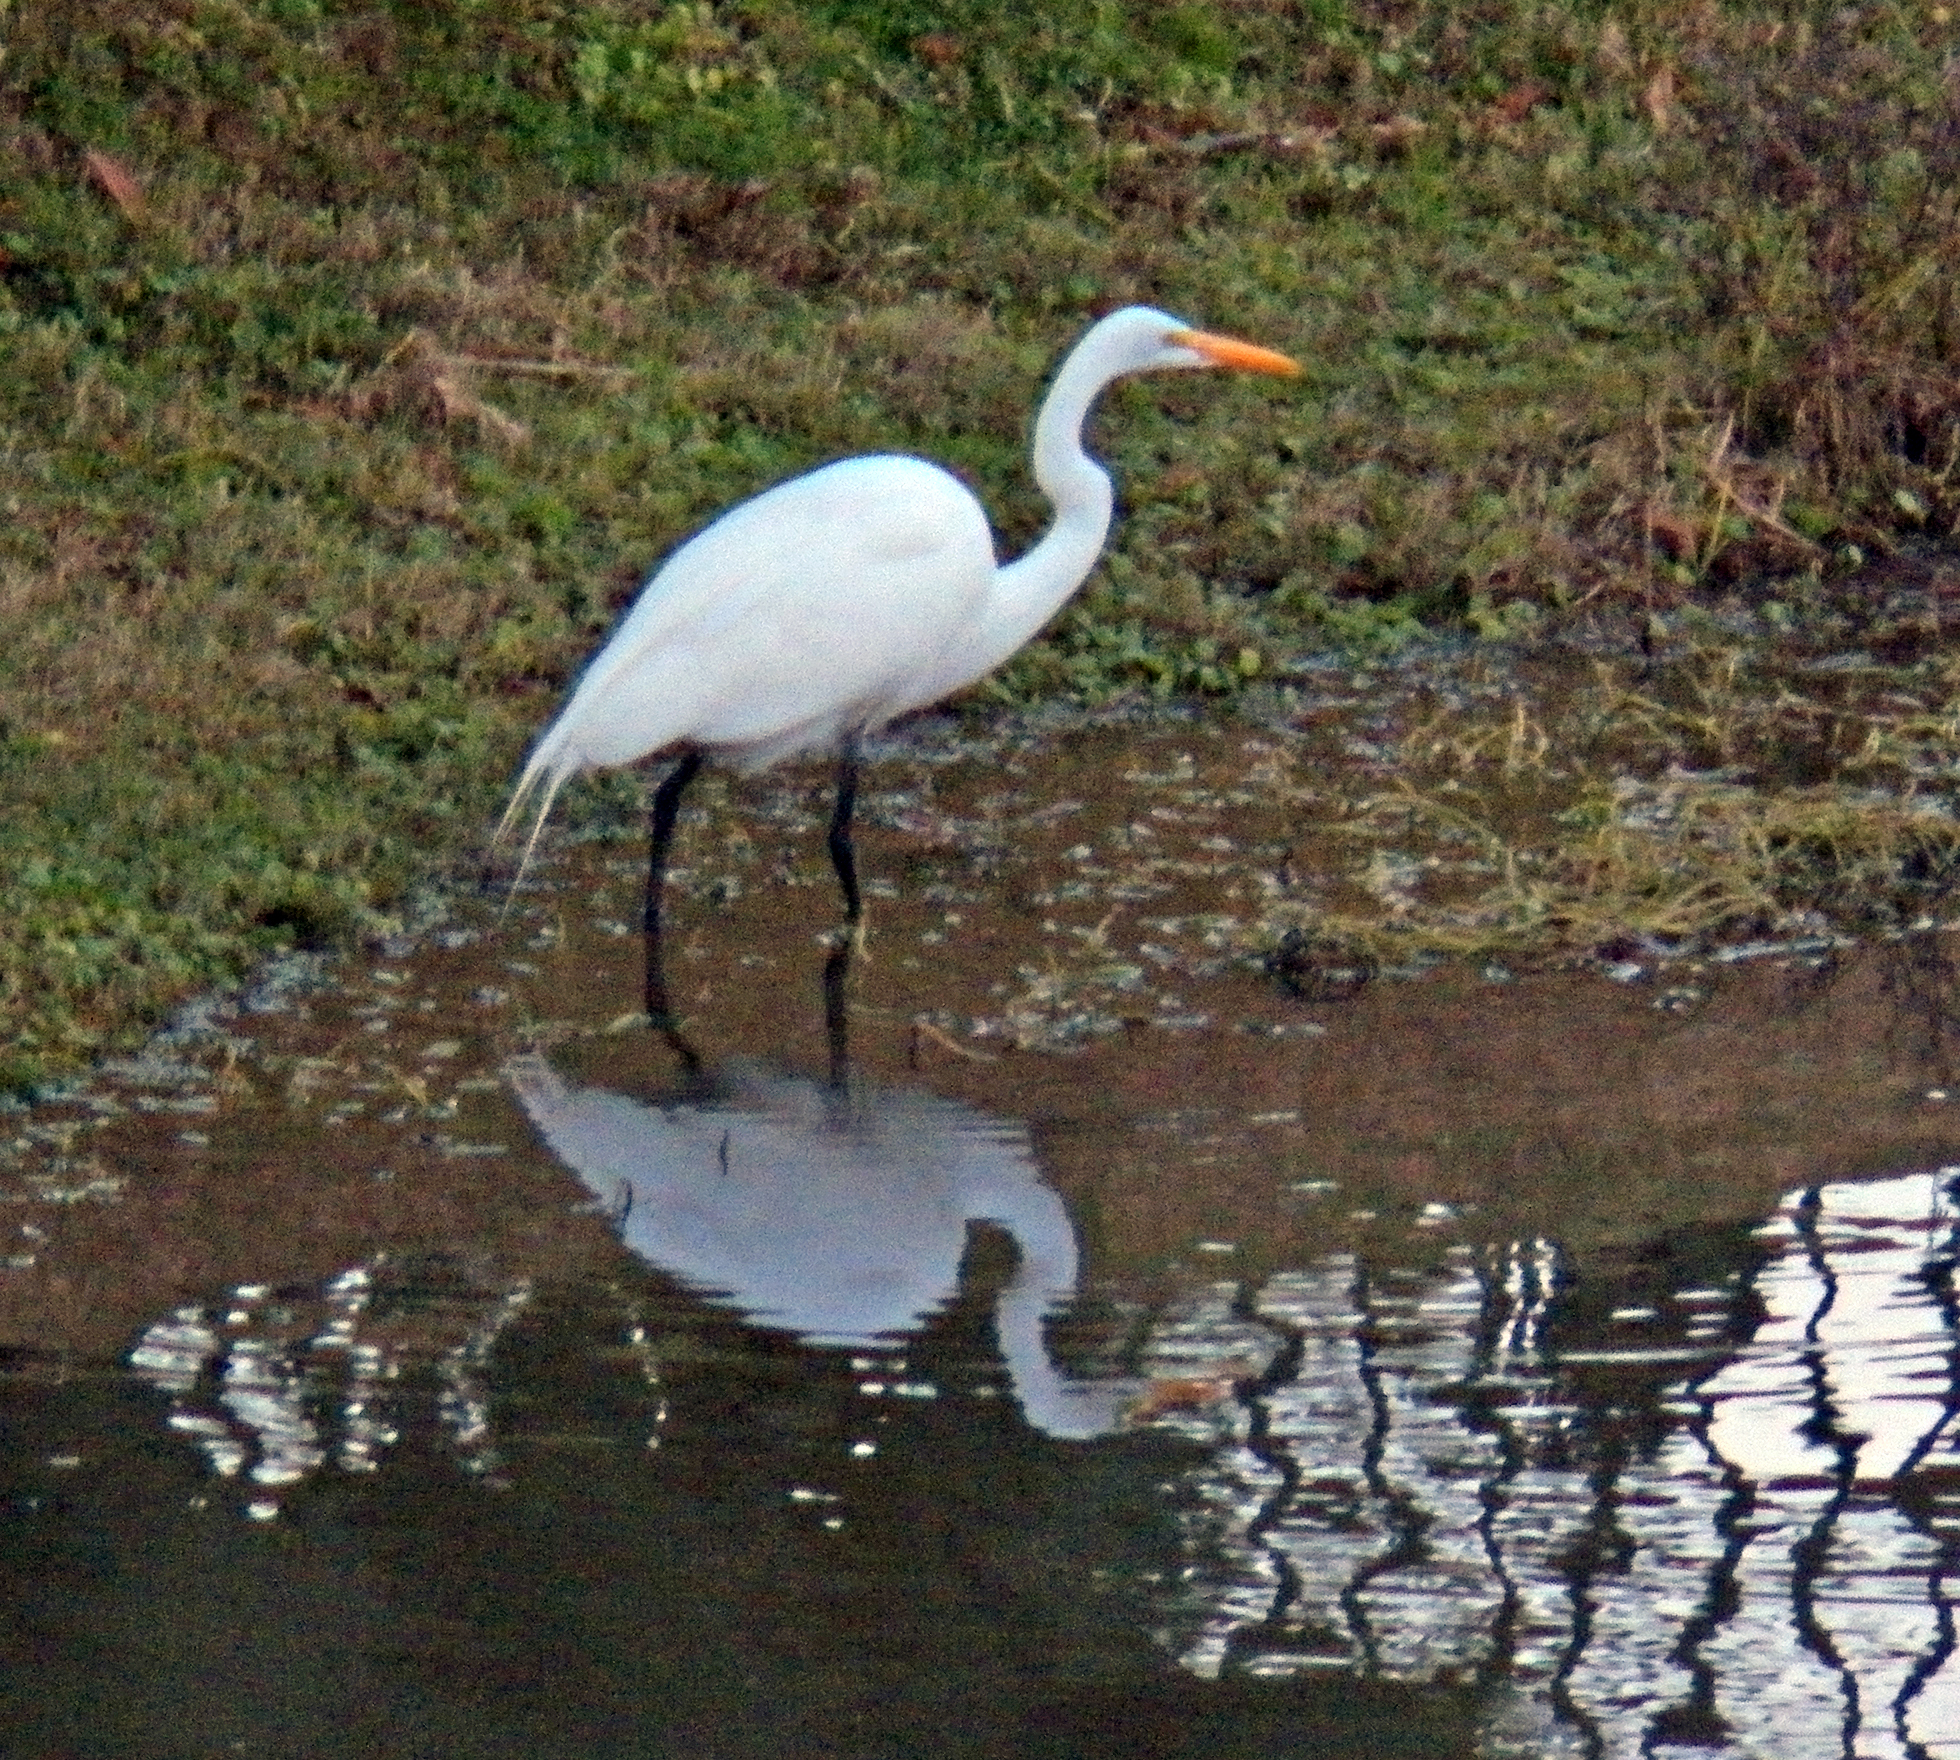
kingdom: Animalia
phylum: Chordata
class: Aves
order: Pelecaniformes
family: Ardeidae
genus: Ardea
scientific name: Ardea alba
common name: Great egret
